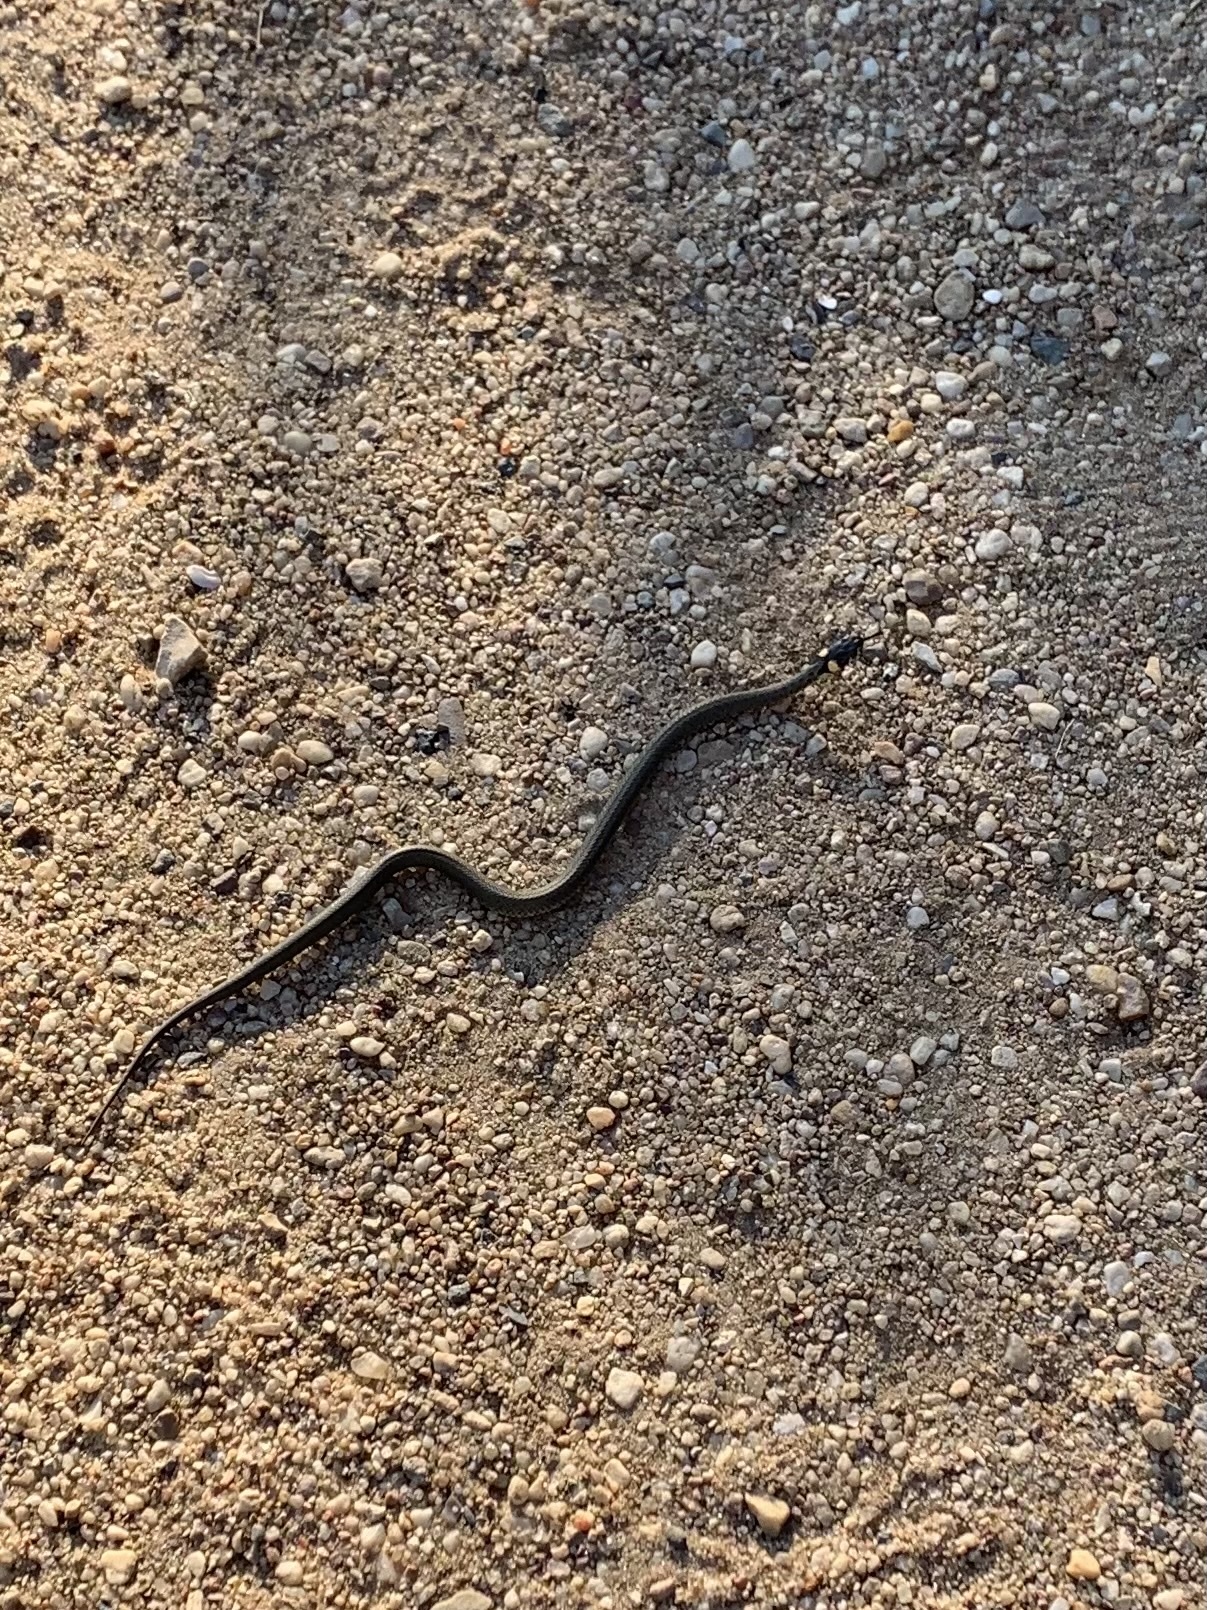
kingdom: Animalia
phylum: Chordata
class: Squamata
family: Colubridae
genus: Natrix
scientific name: Natrix natrix
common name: Grass snake
